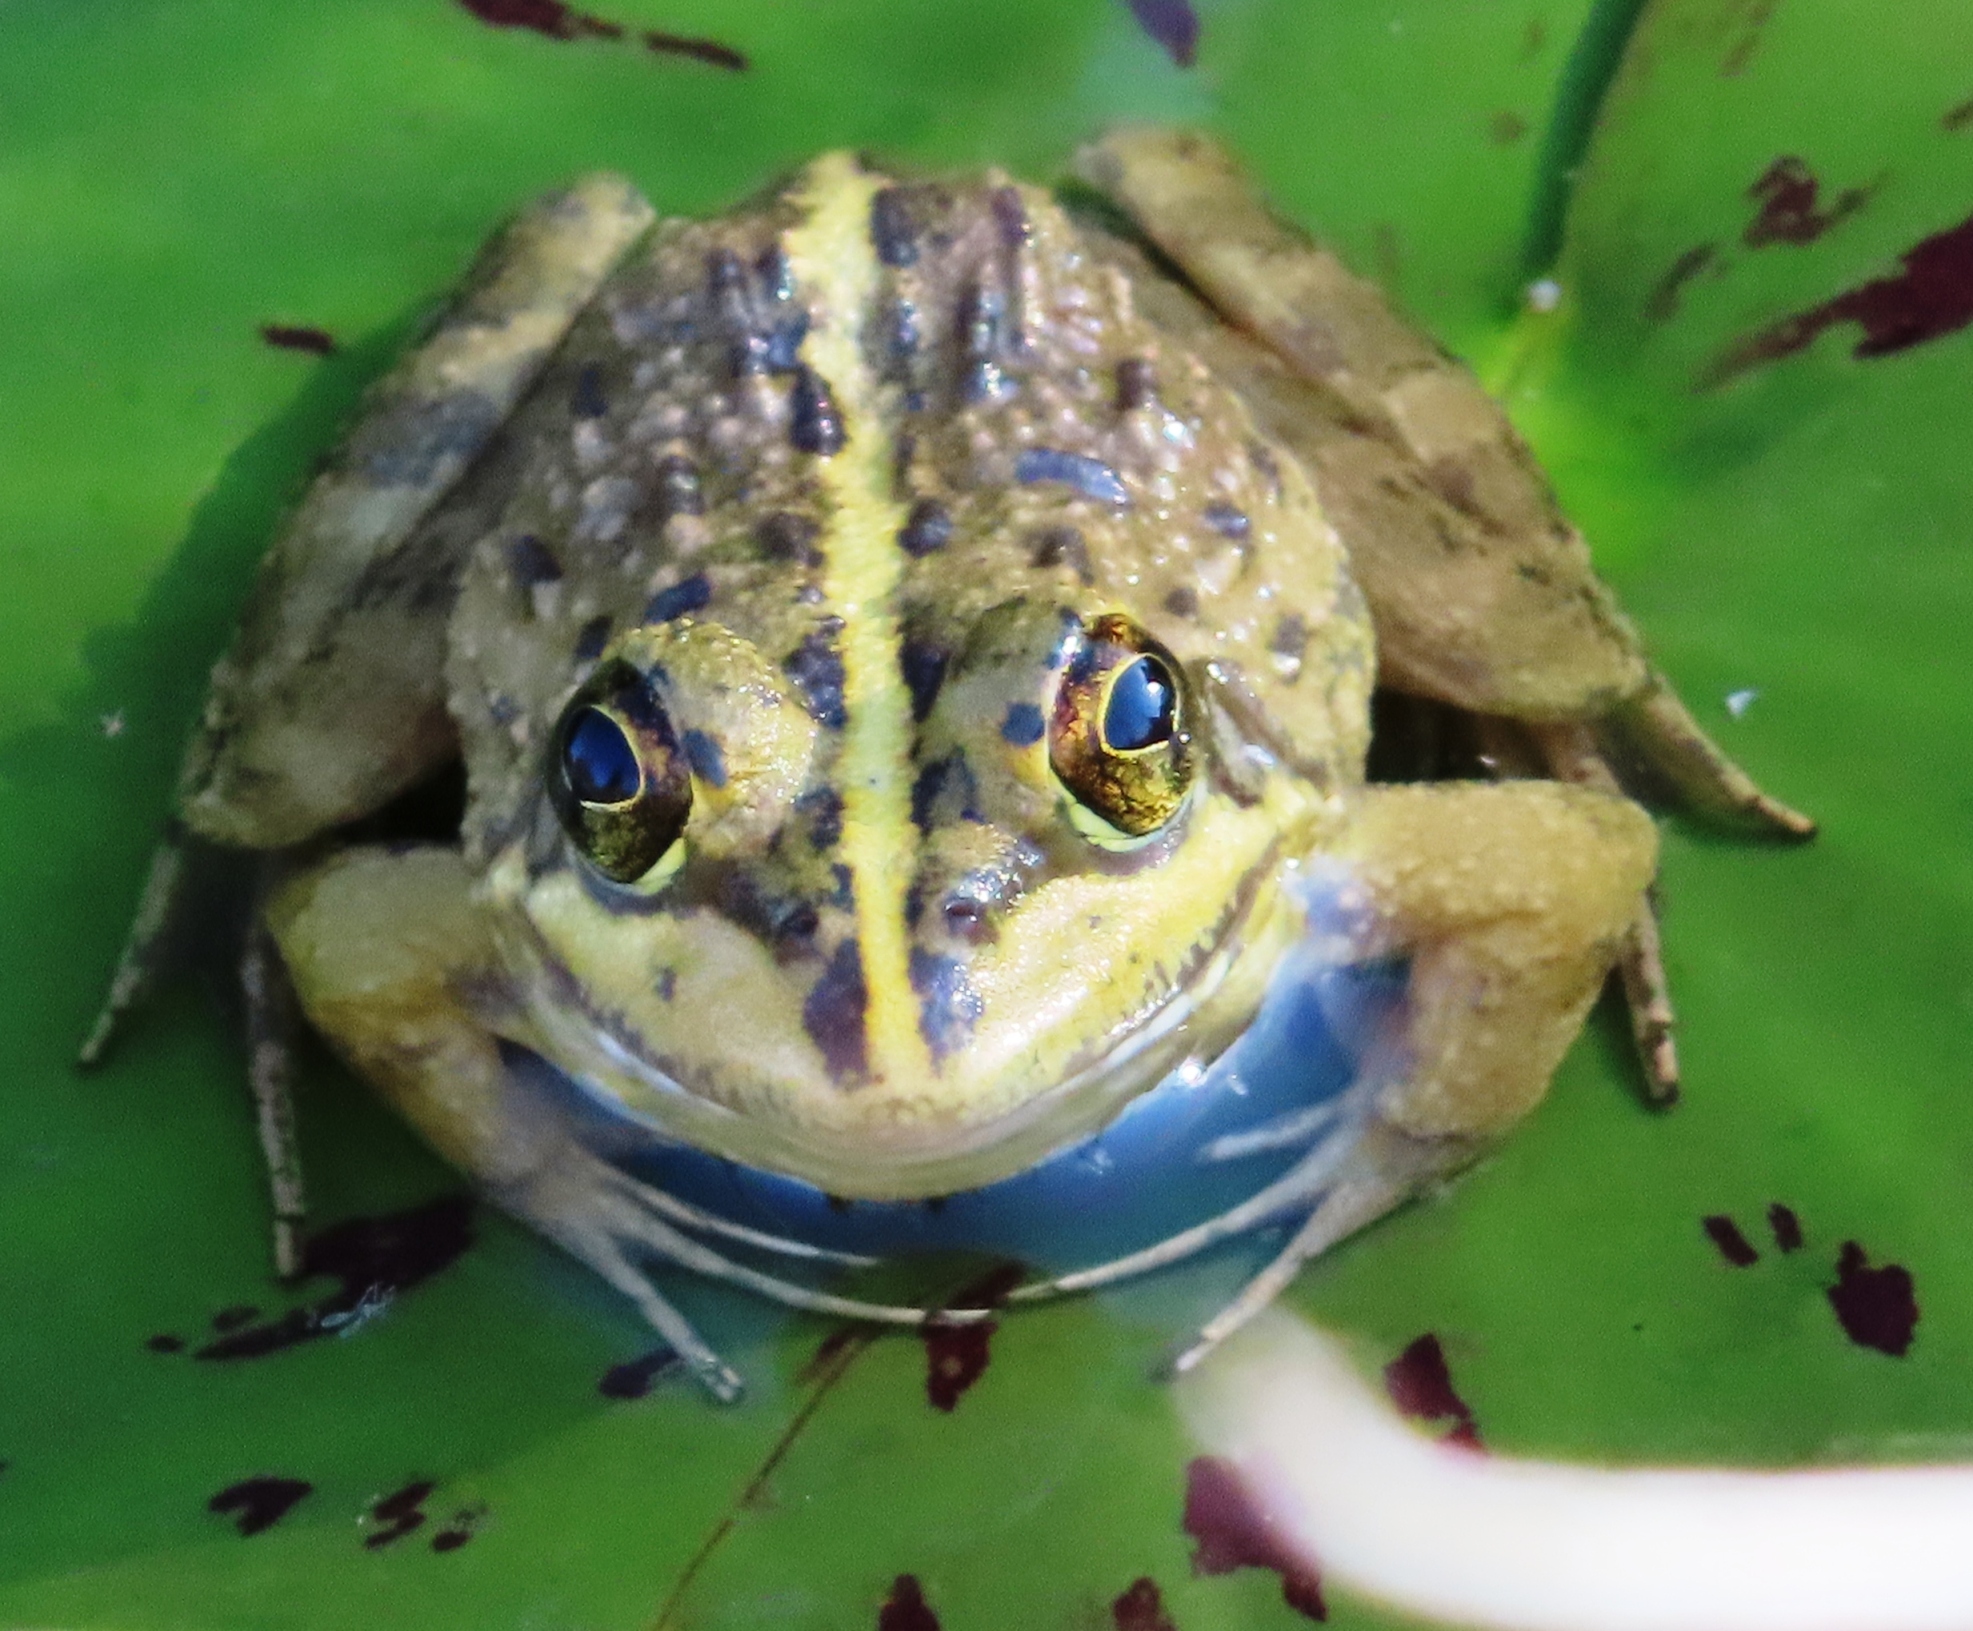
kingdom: Animalia
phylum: Chordata
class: Amphibia
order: Anura
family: Pyxicephalidae
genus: Amietia
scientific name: Amietia fuscigula
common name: Cape rana
